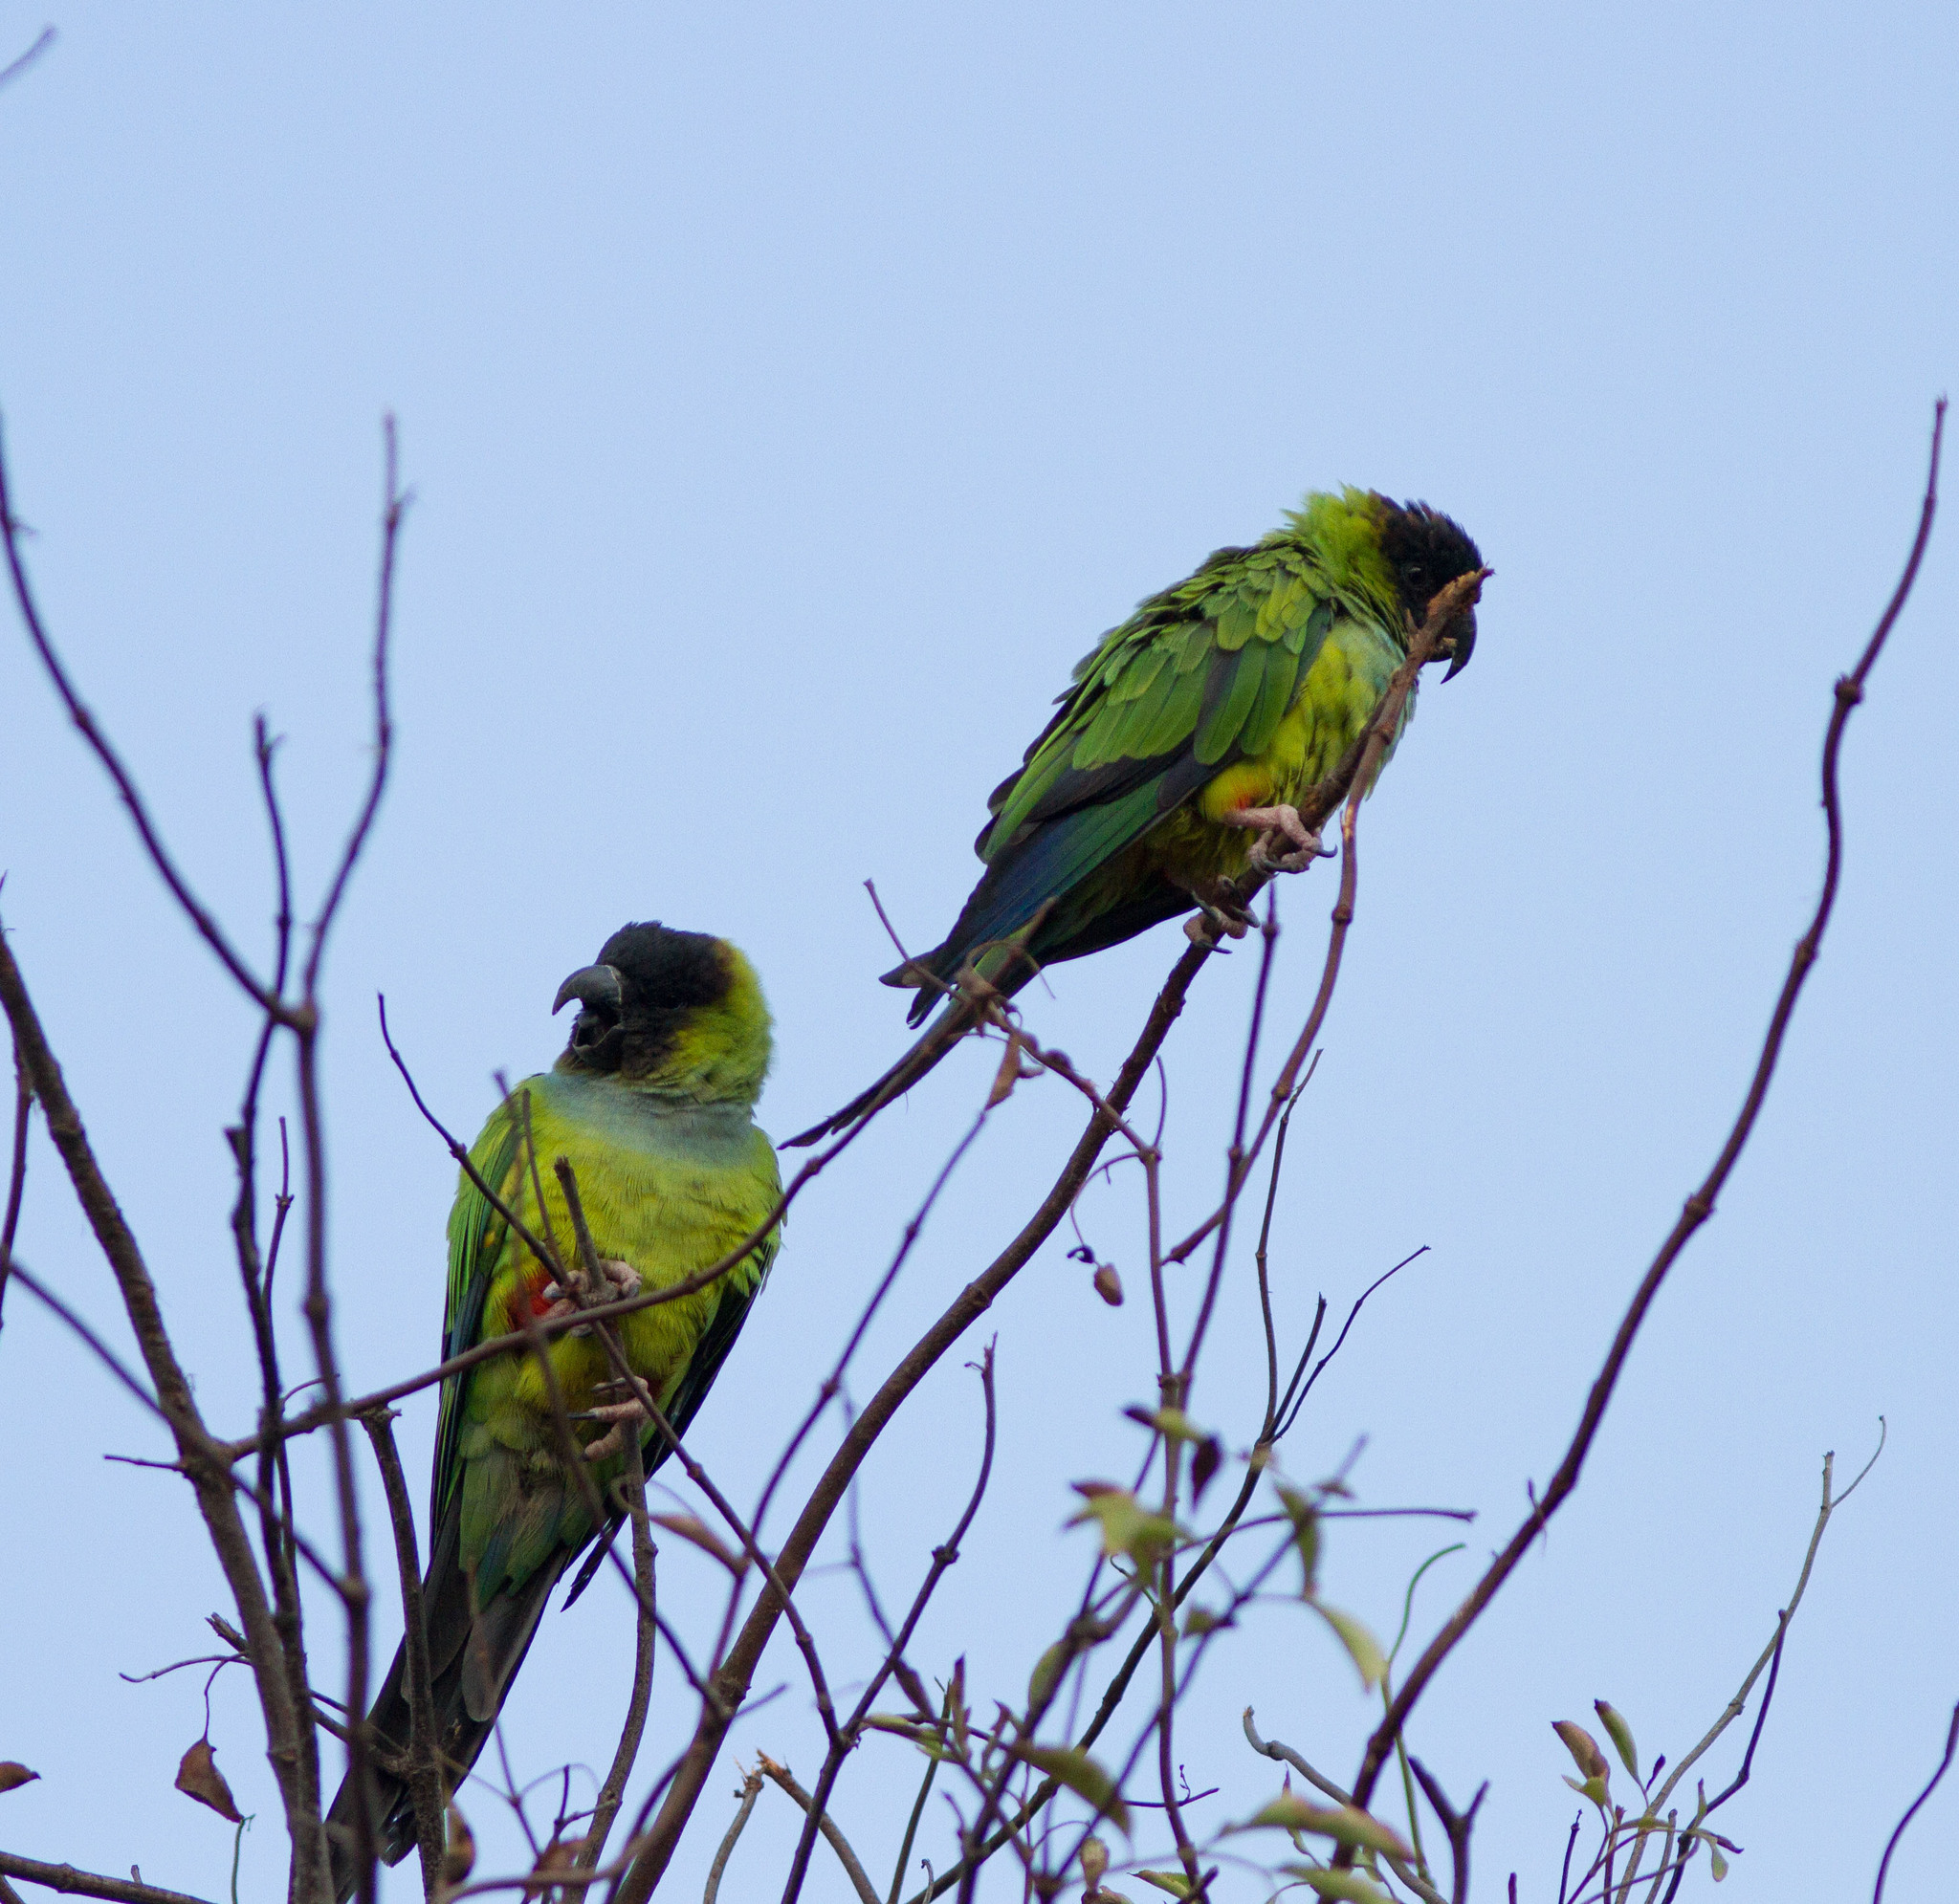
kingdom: Animalia
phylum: Chordata
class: Aves
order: Psittaciformes
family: Psittacidae
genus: Nandayus
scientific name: Nandayus nenday
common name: Nanday parakeet
